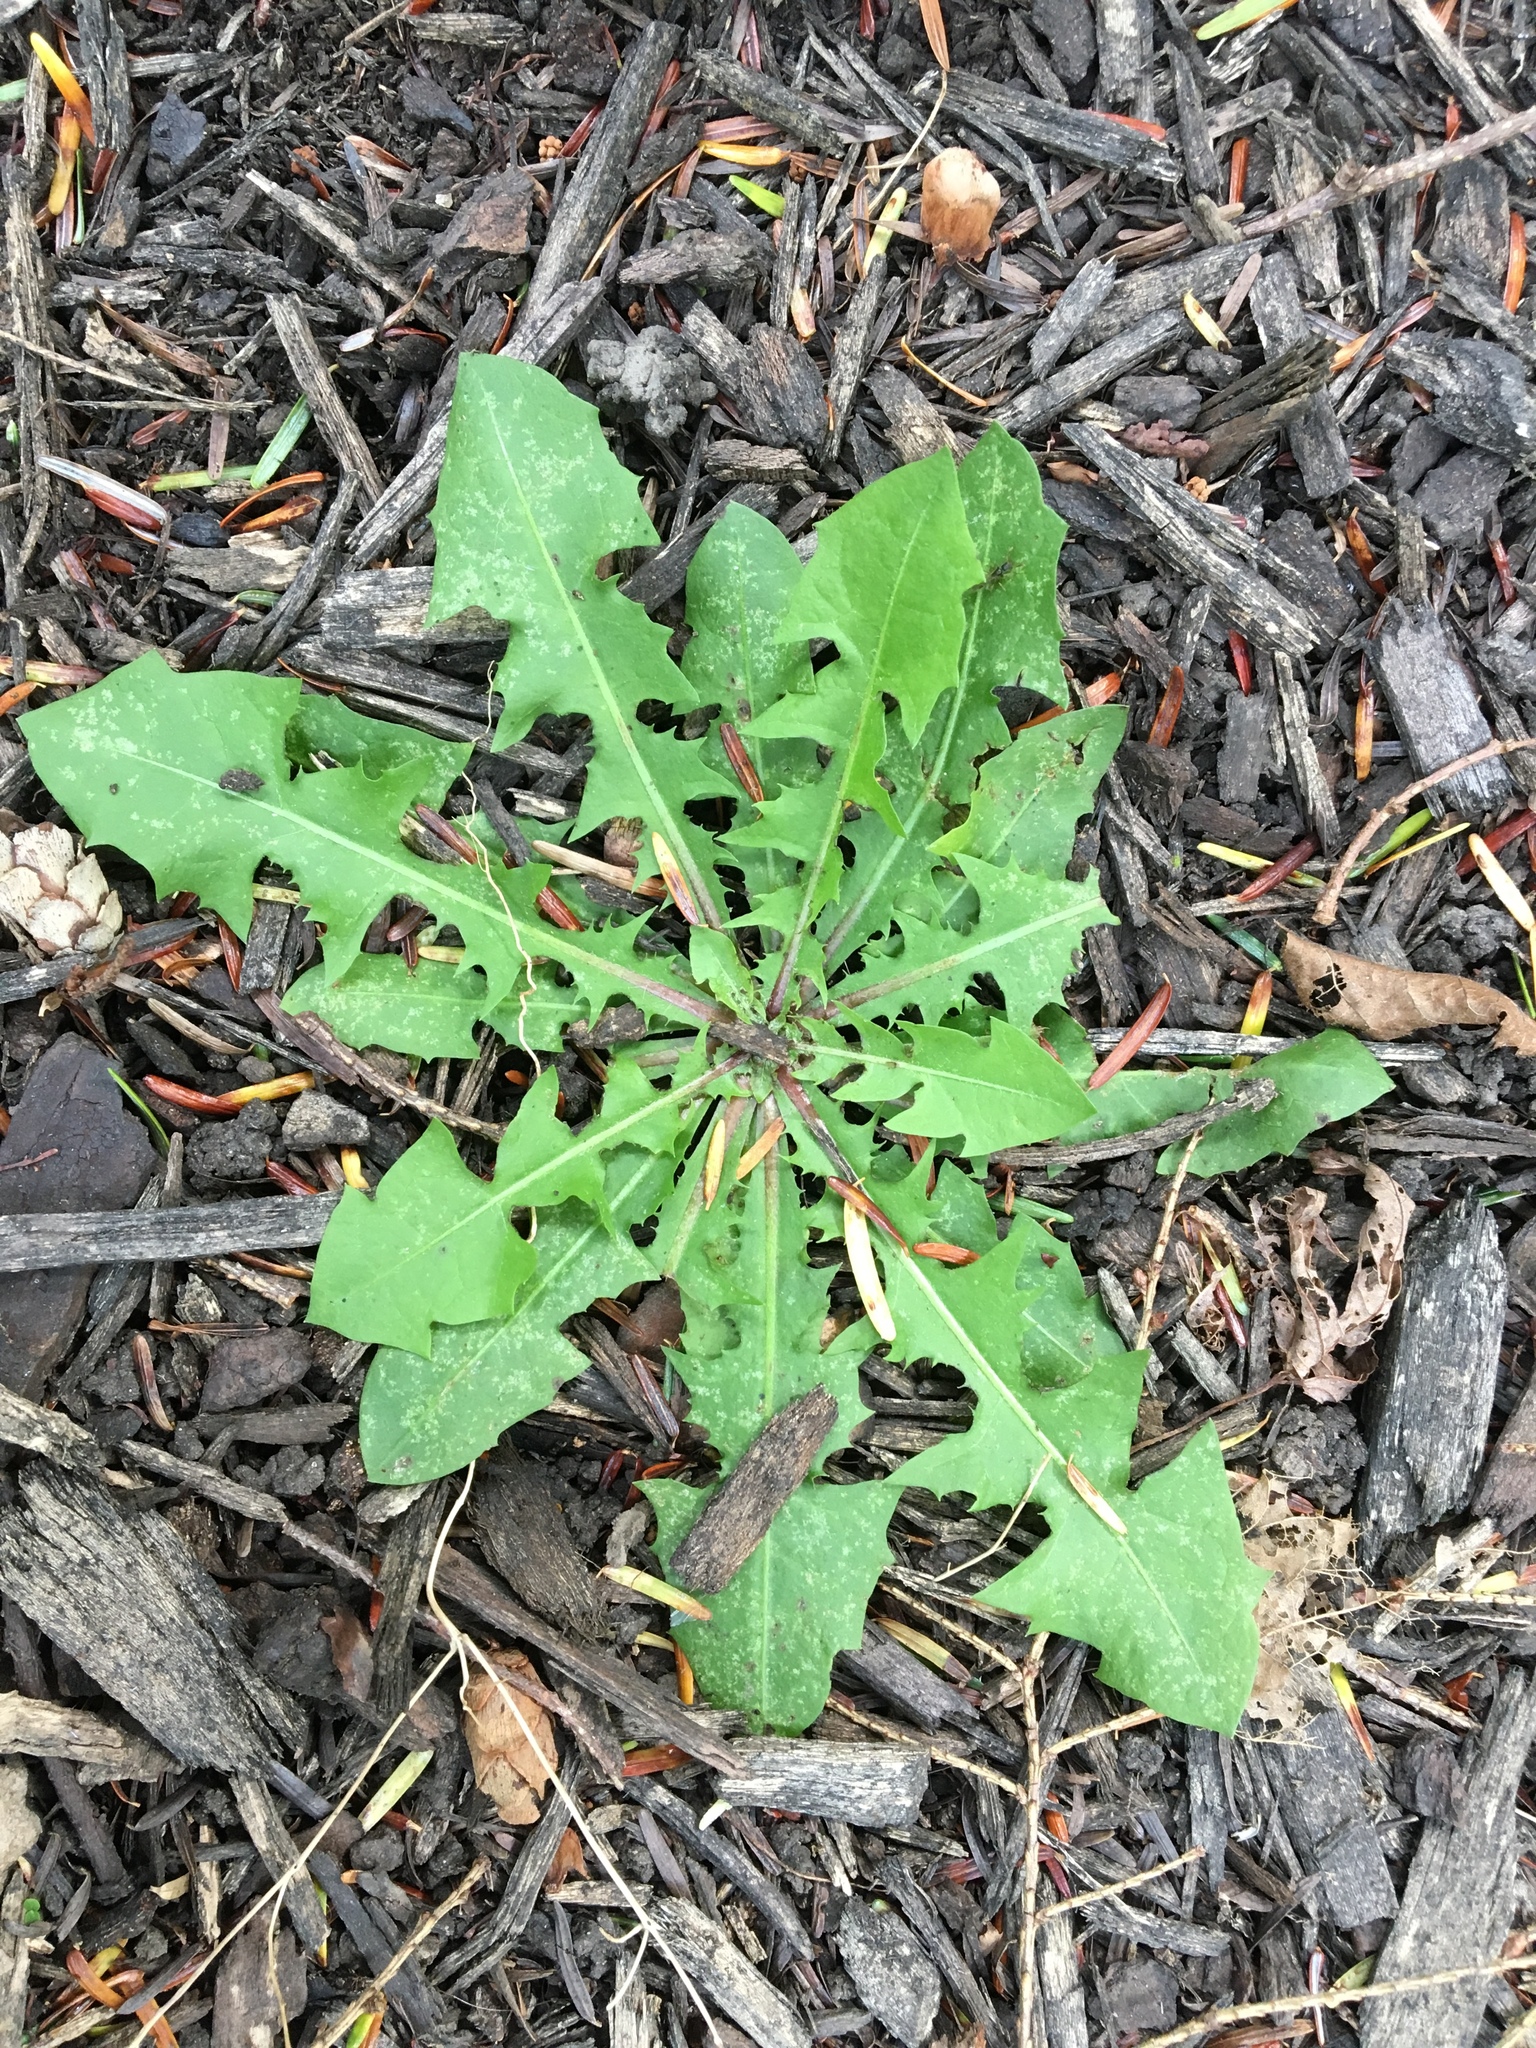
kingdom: Plantae
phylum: Tracheophyta
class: Magnoliopsida
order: Asterales
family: Asteraceae
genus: Taraxacum
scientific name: Taraxacum
